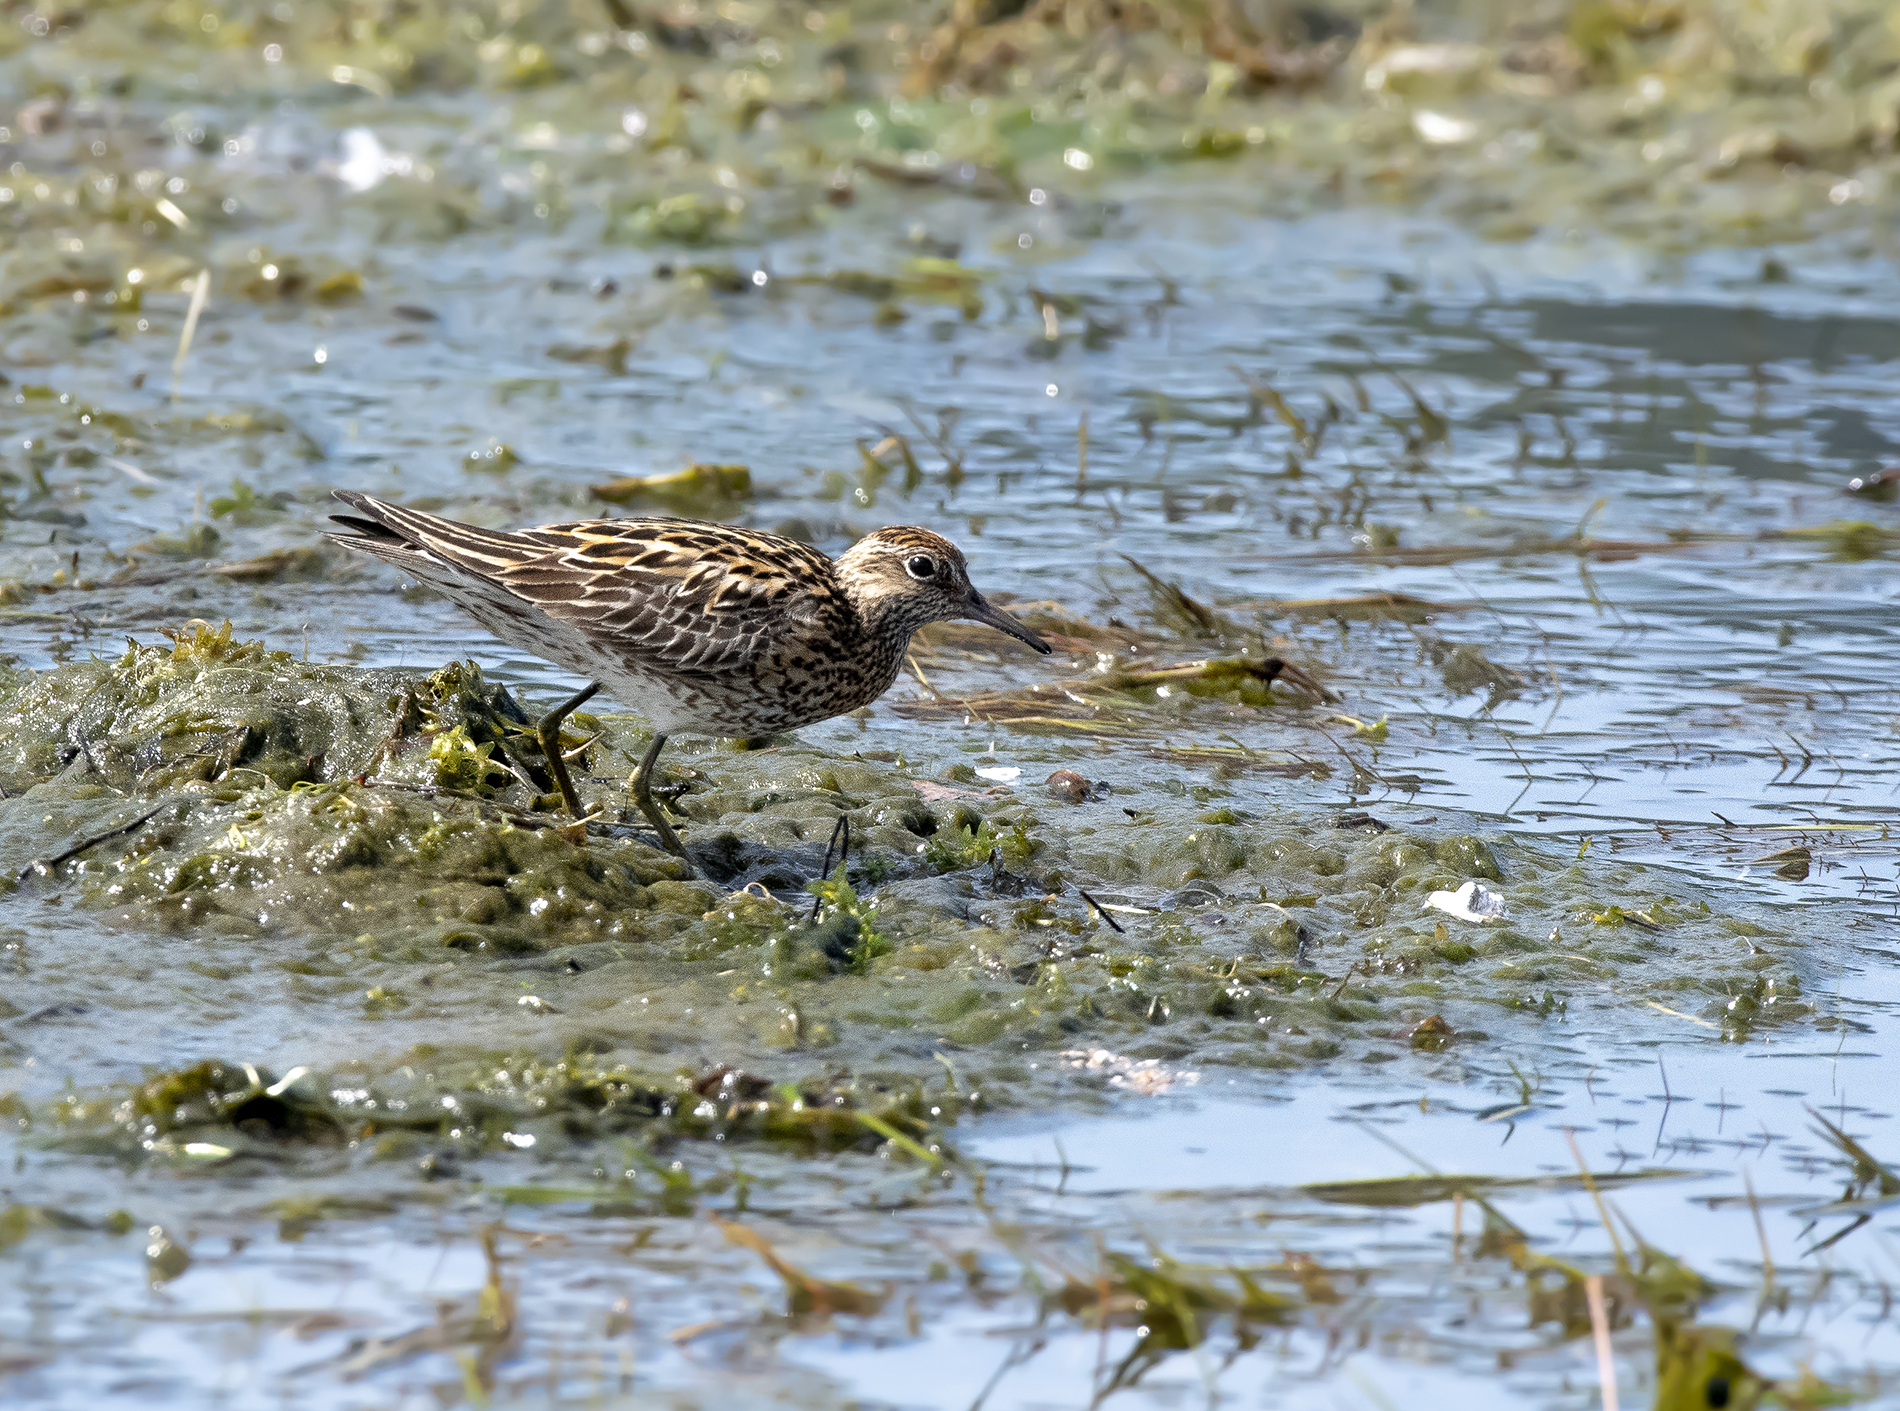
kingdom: Animalia
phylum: Chordata
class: Aves
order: Charadriiformes
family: Scolopacidae
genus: Calidris
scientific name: Calidris acuminata
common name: Sharp-tailed sandpiper
